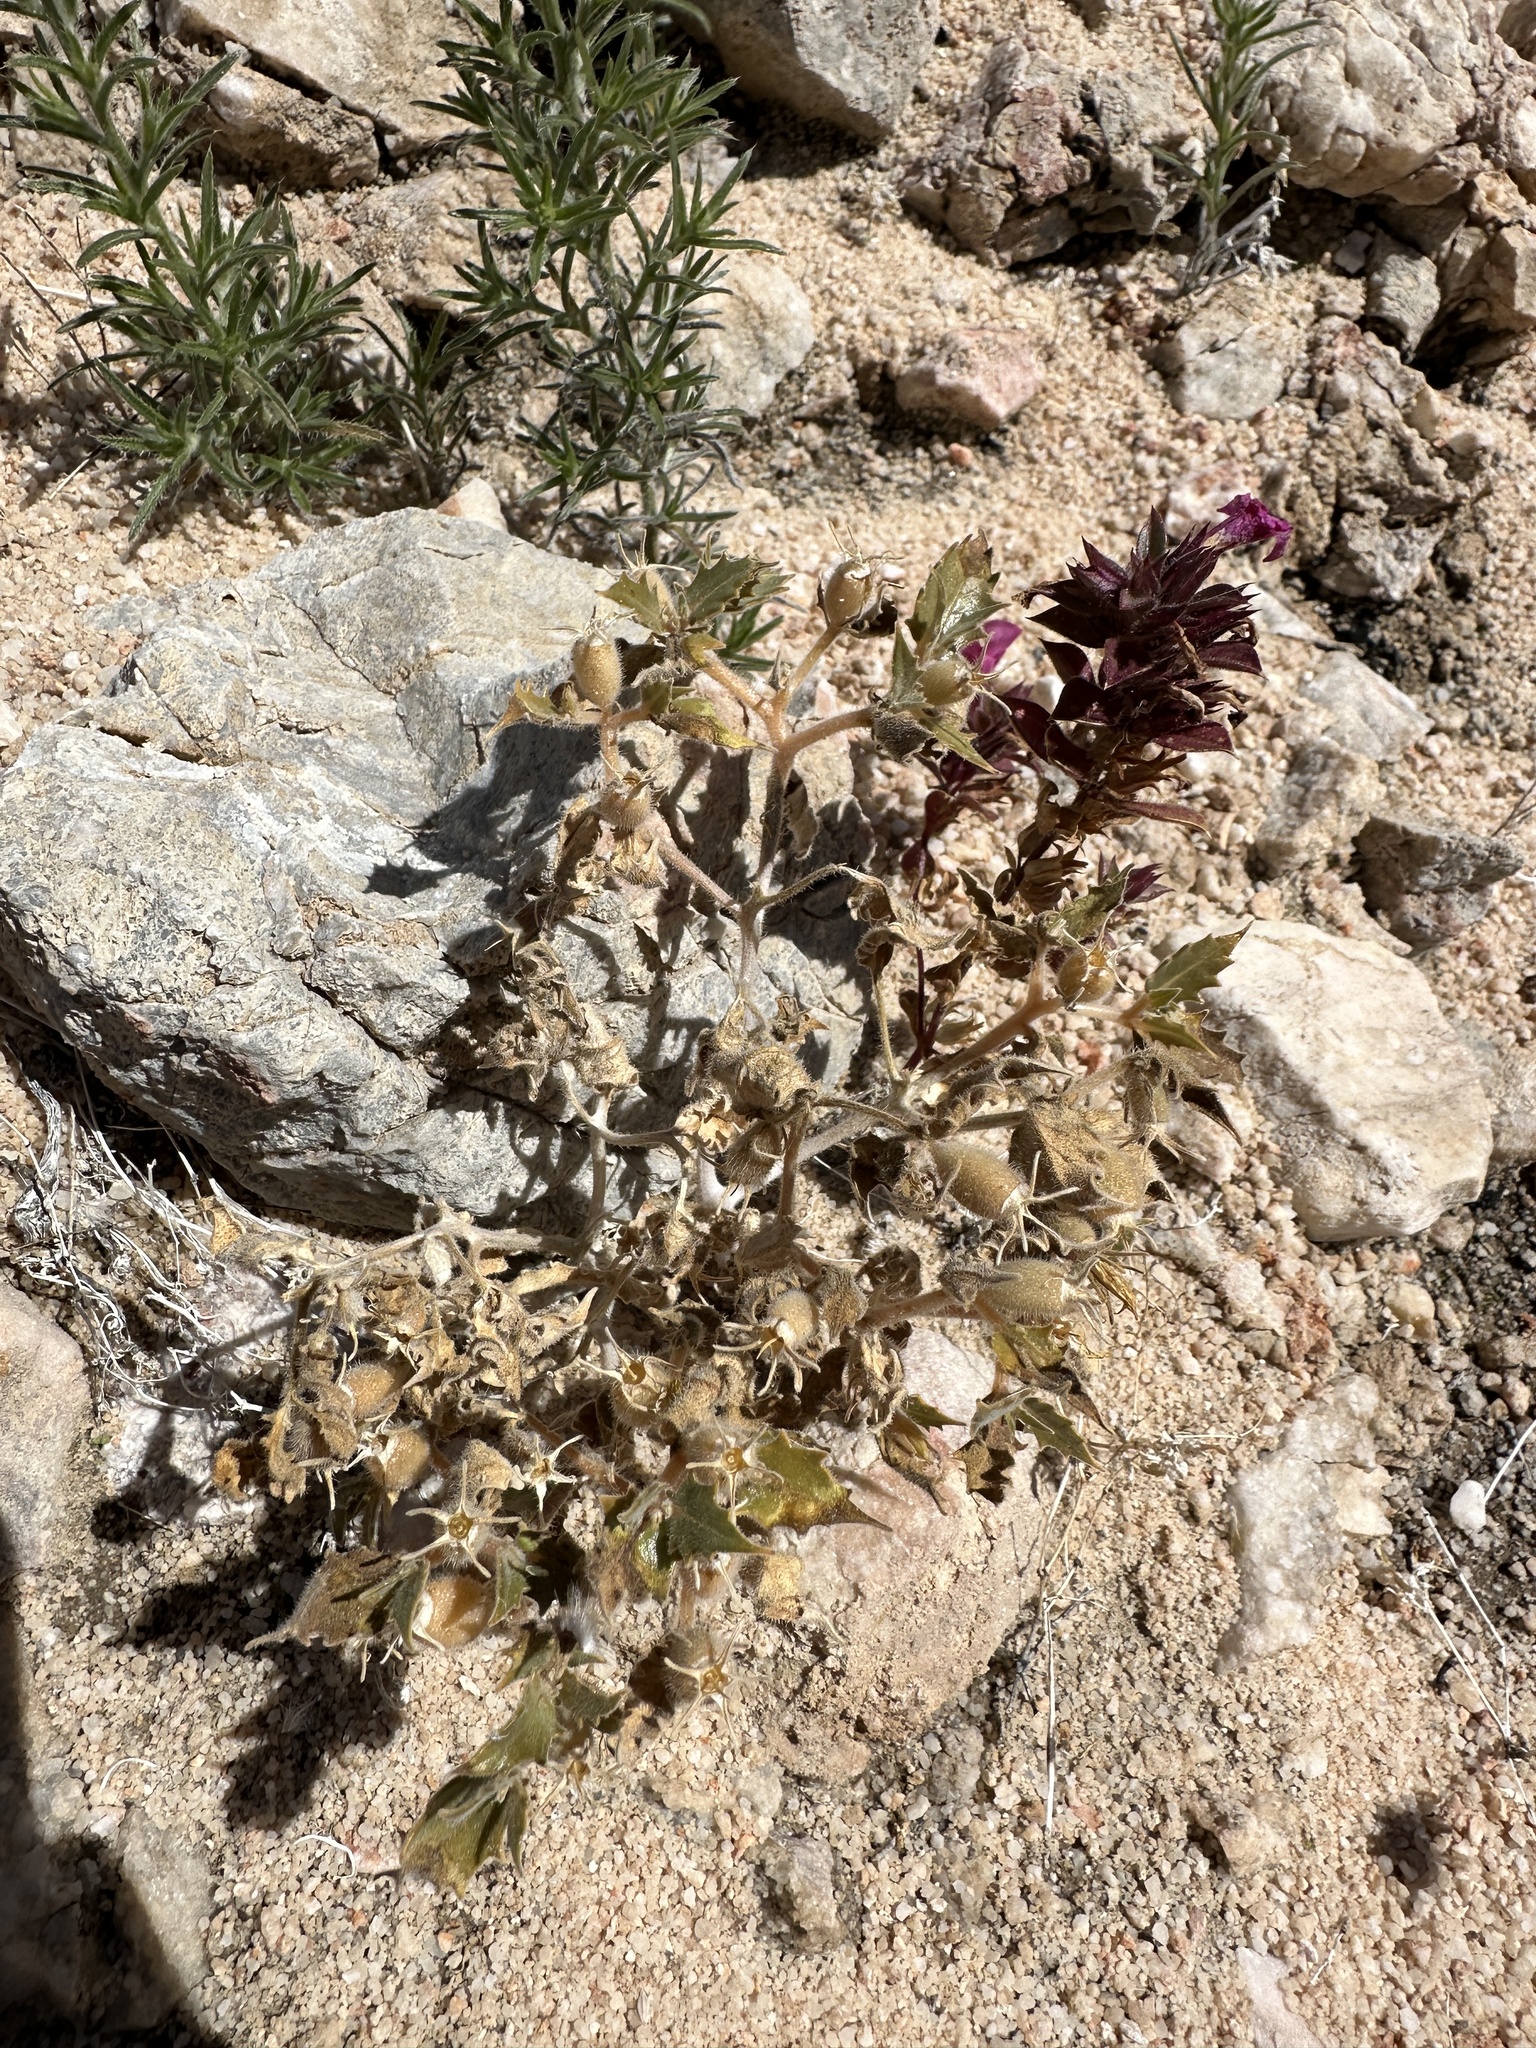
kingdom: Plantae
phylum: Tracheophyta
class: Magnoliopsida
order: Cornales
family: Loasaceae
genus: Mentzelia
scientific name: Mentzelia reflexa
